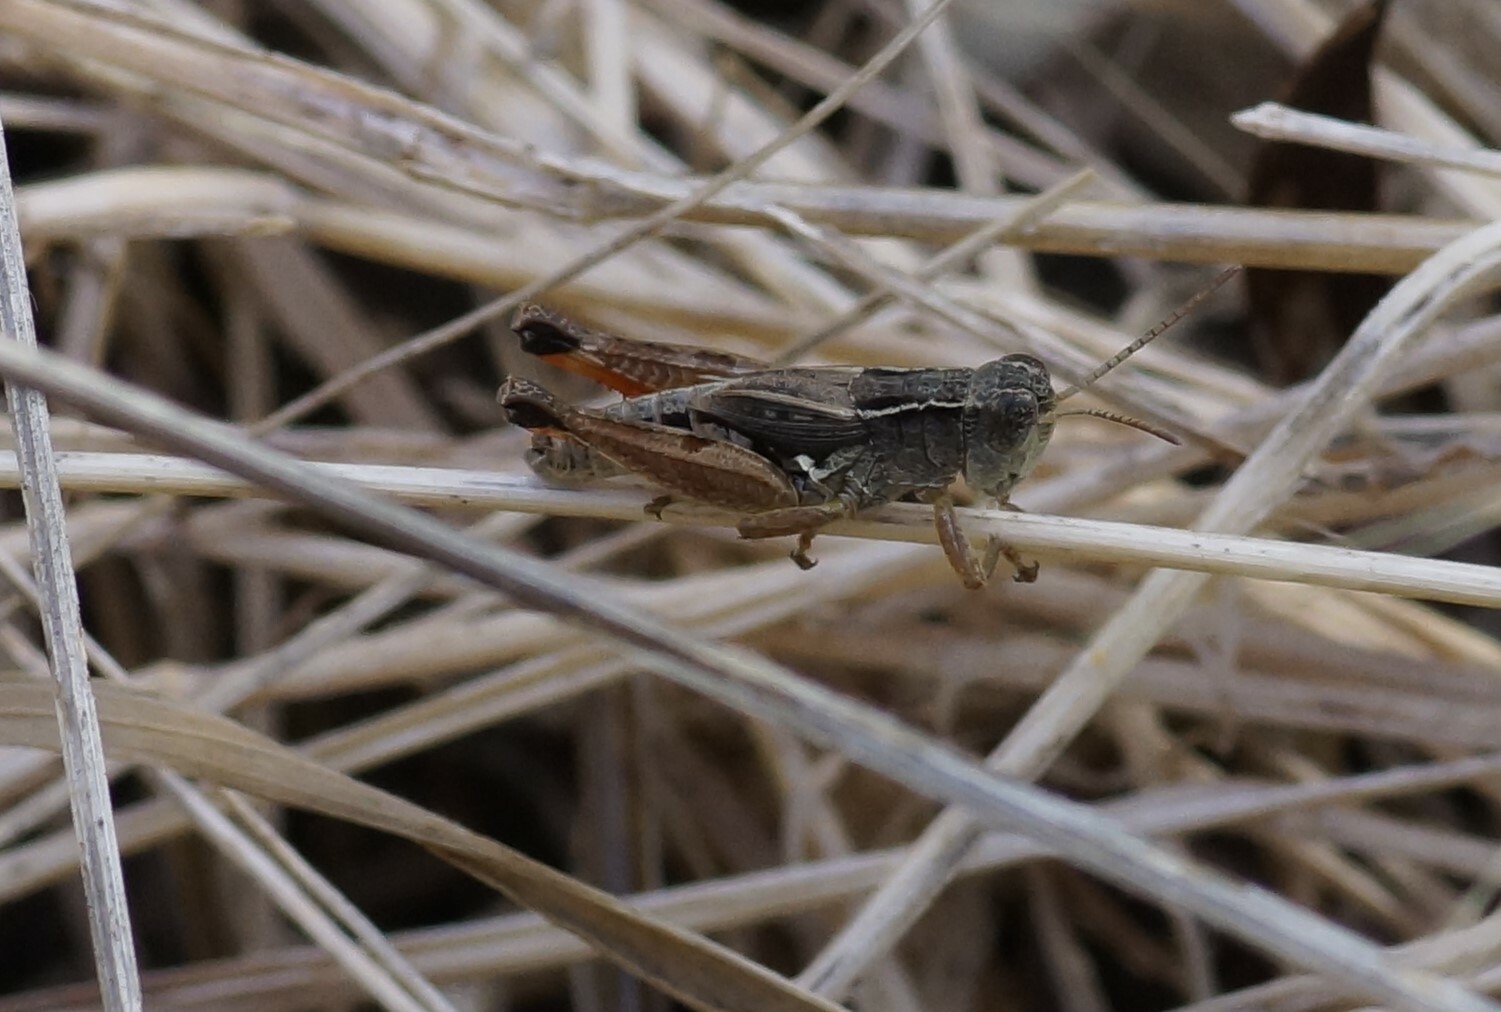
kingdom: Animalia
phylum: Arthropoda
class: Insecta
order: Orthoptera
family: Acrididae
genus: Phaulacridium
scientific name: Phaulacridium vittatum
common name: Wingless grasshopper
